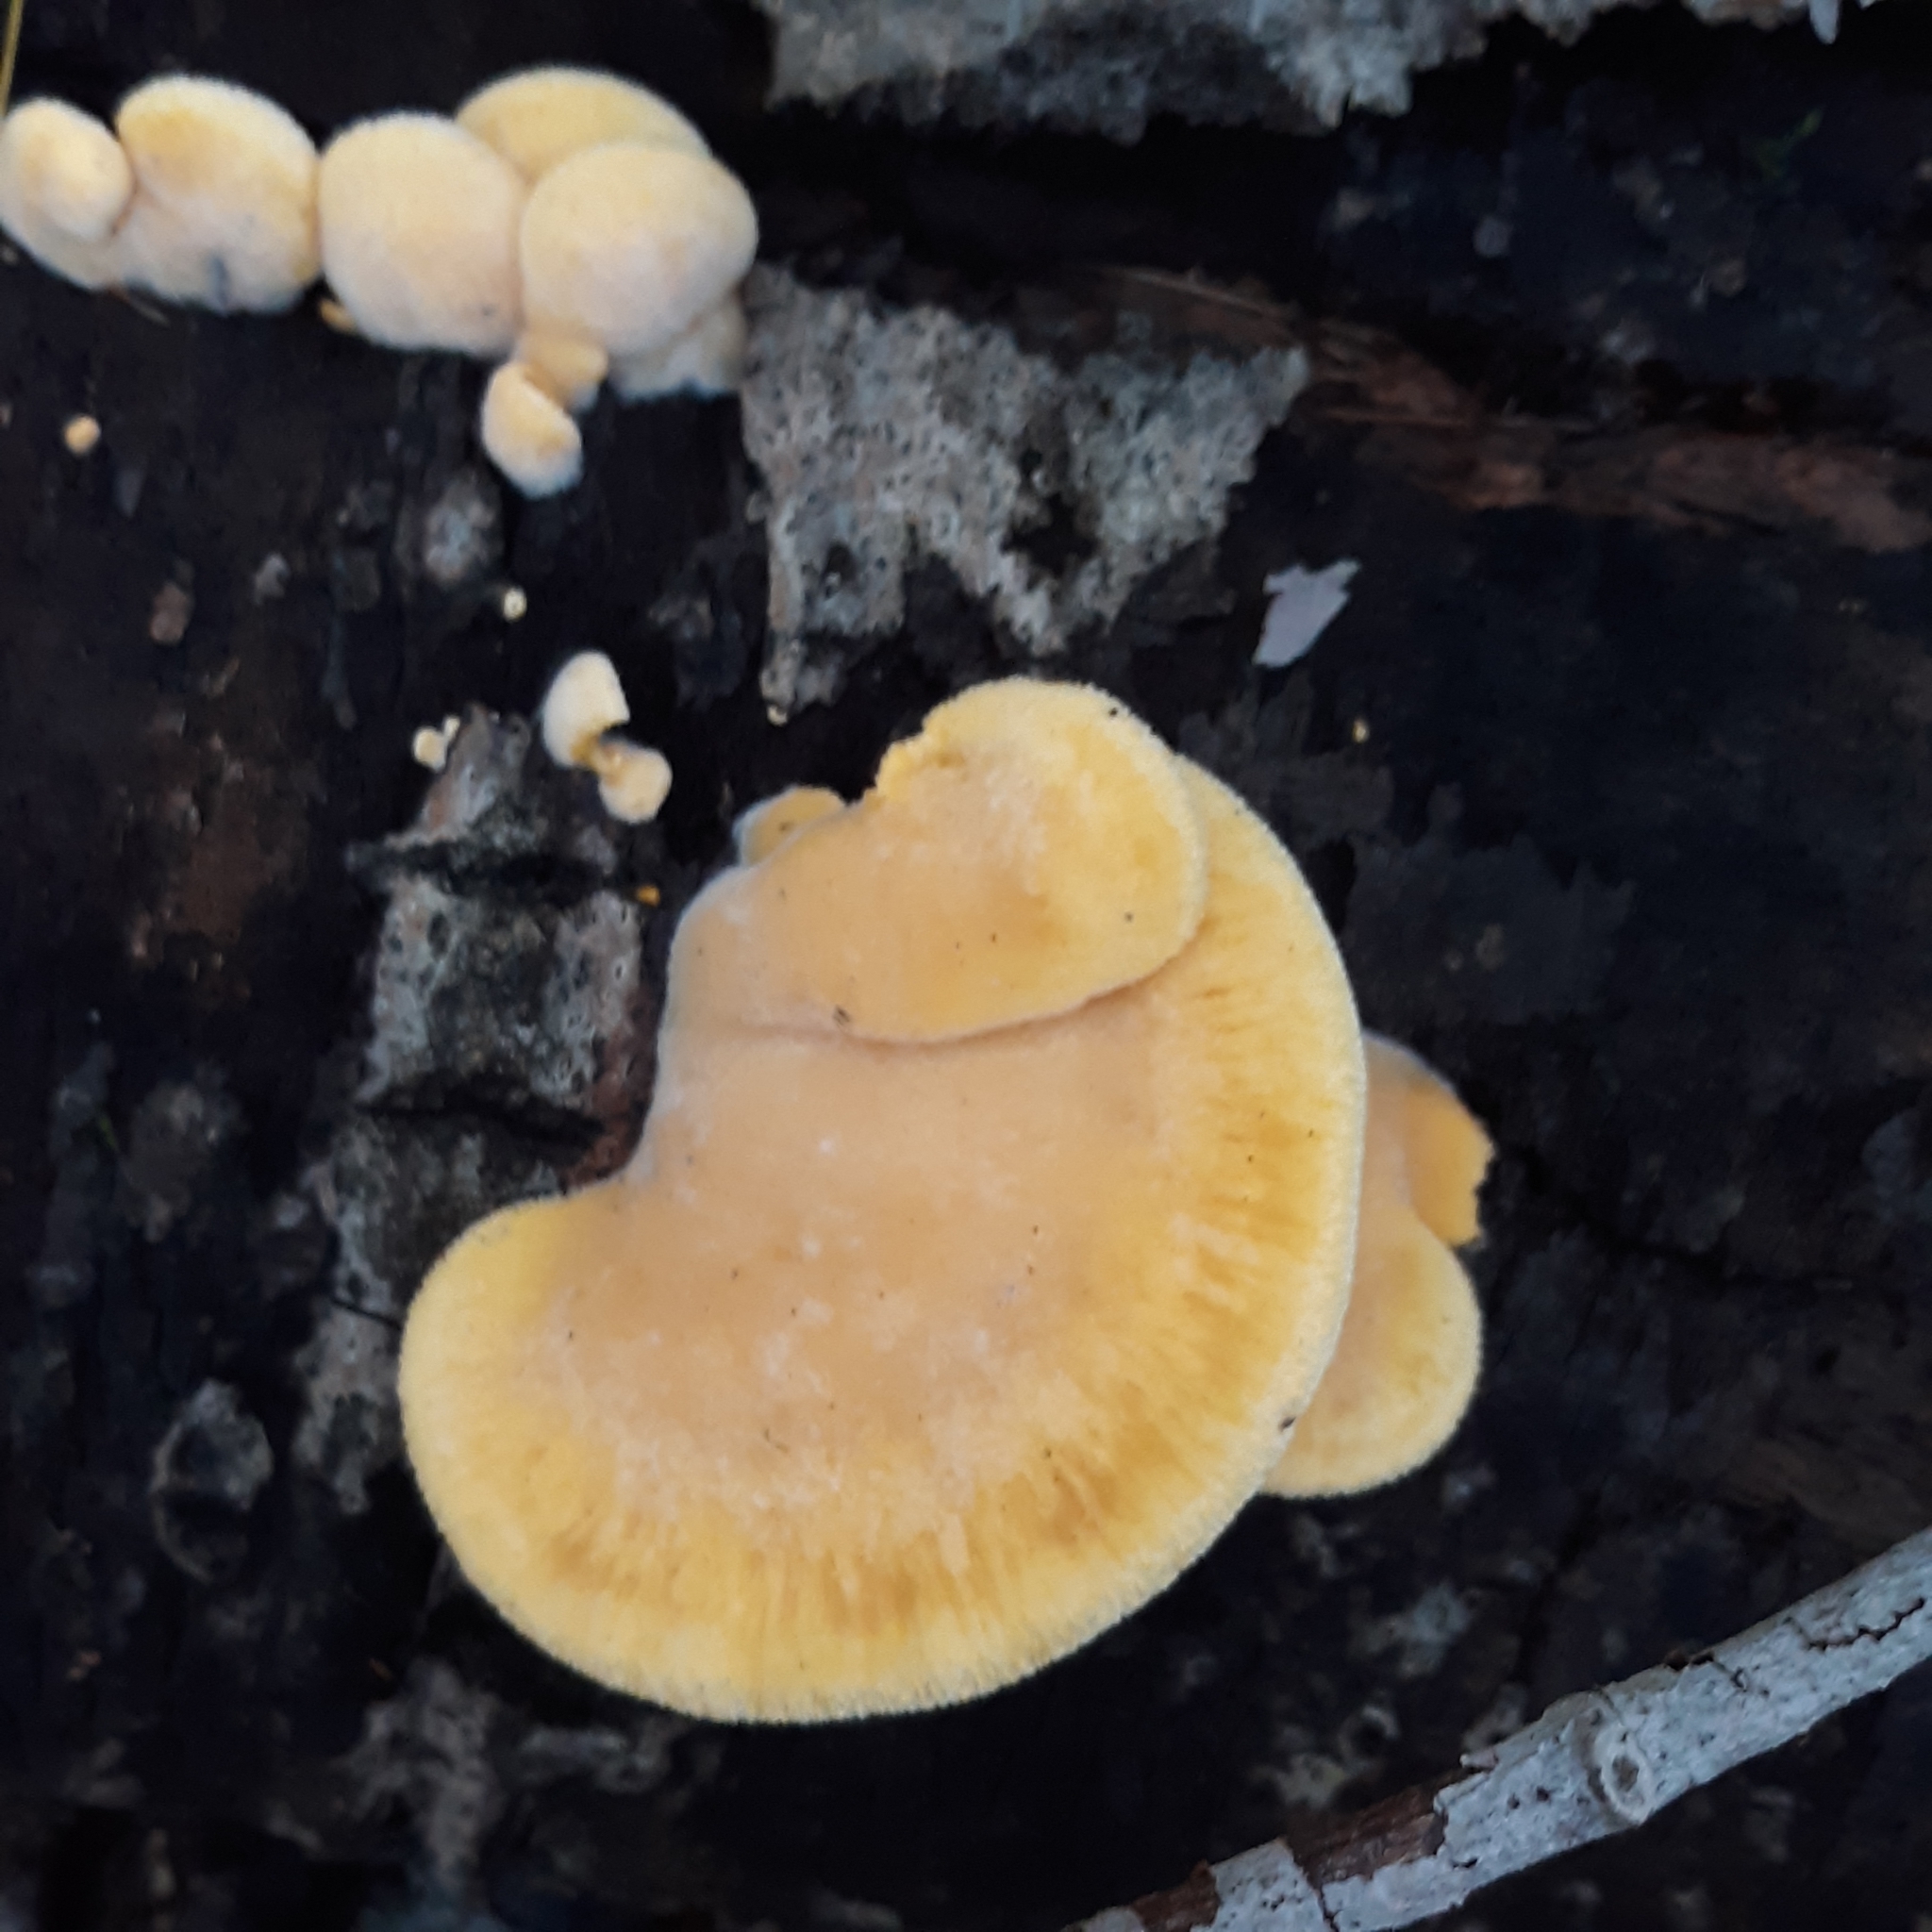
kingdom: Fungi
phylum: Basidiomycota
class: Agaricomycetes
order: Agaricales
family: Phyllotopsidaceae
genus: Phyllotopsis
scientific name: Phyllotopsis nidulans
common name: Orange mock oyster
